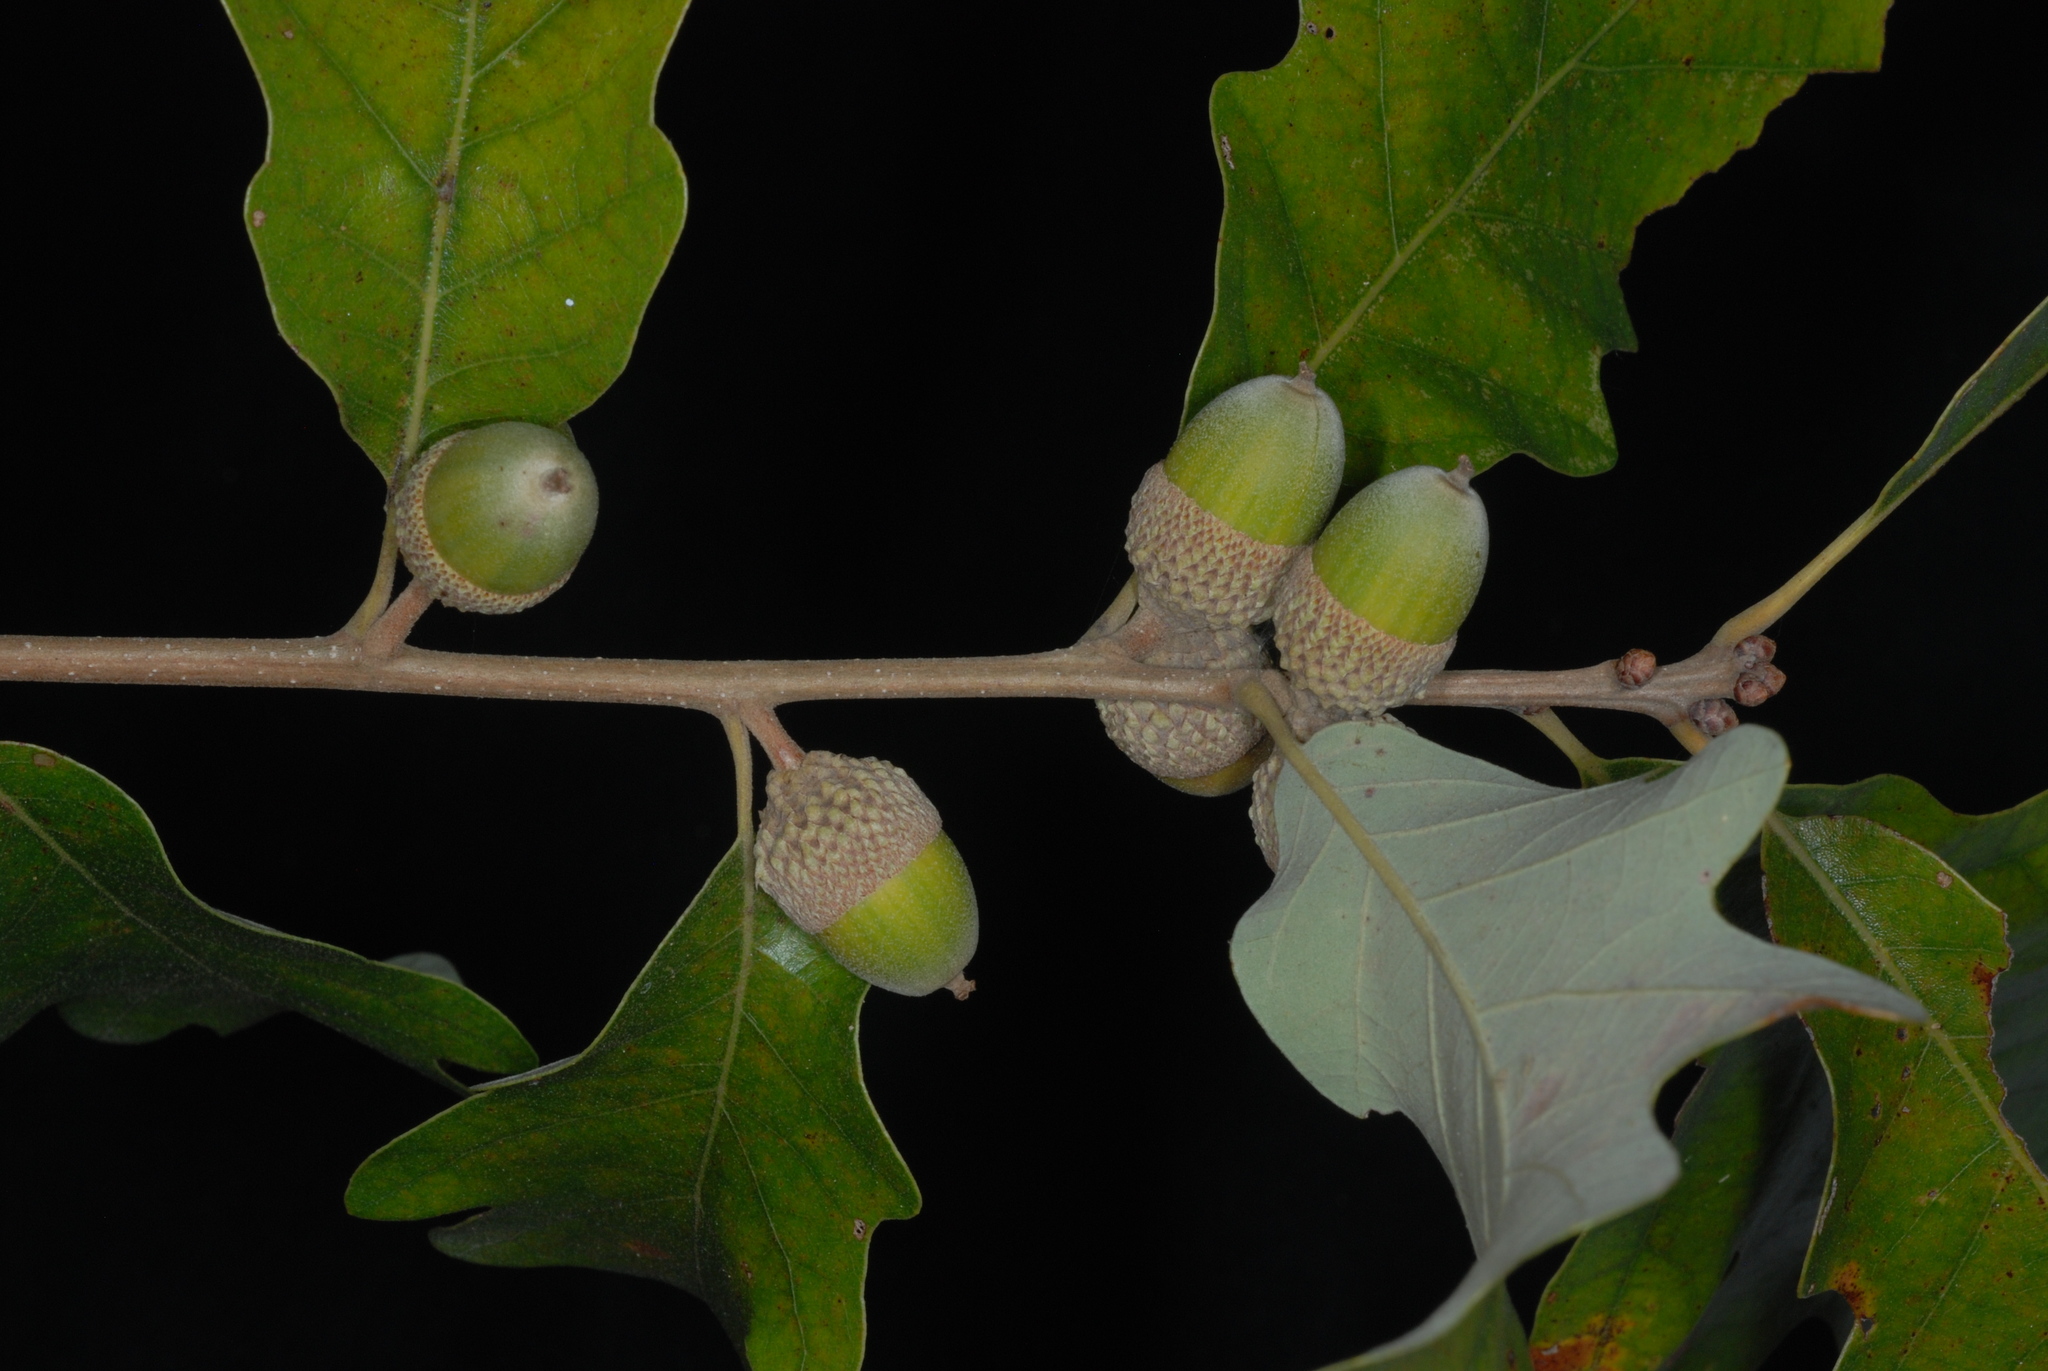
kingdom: Plantae
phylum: Tracheophyta
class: Magnoliopsida
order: Fagales
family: Fagaceae
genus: Quercus
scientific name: Quercus stelloides
